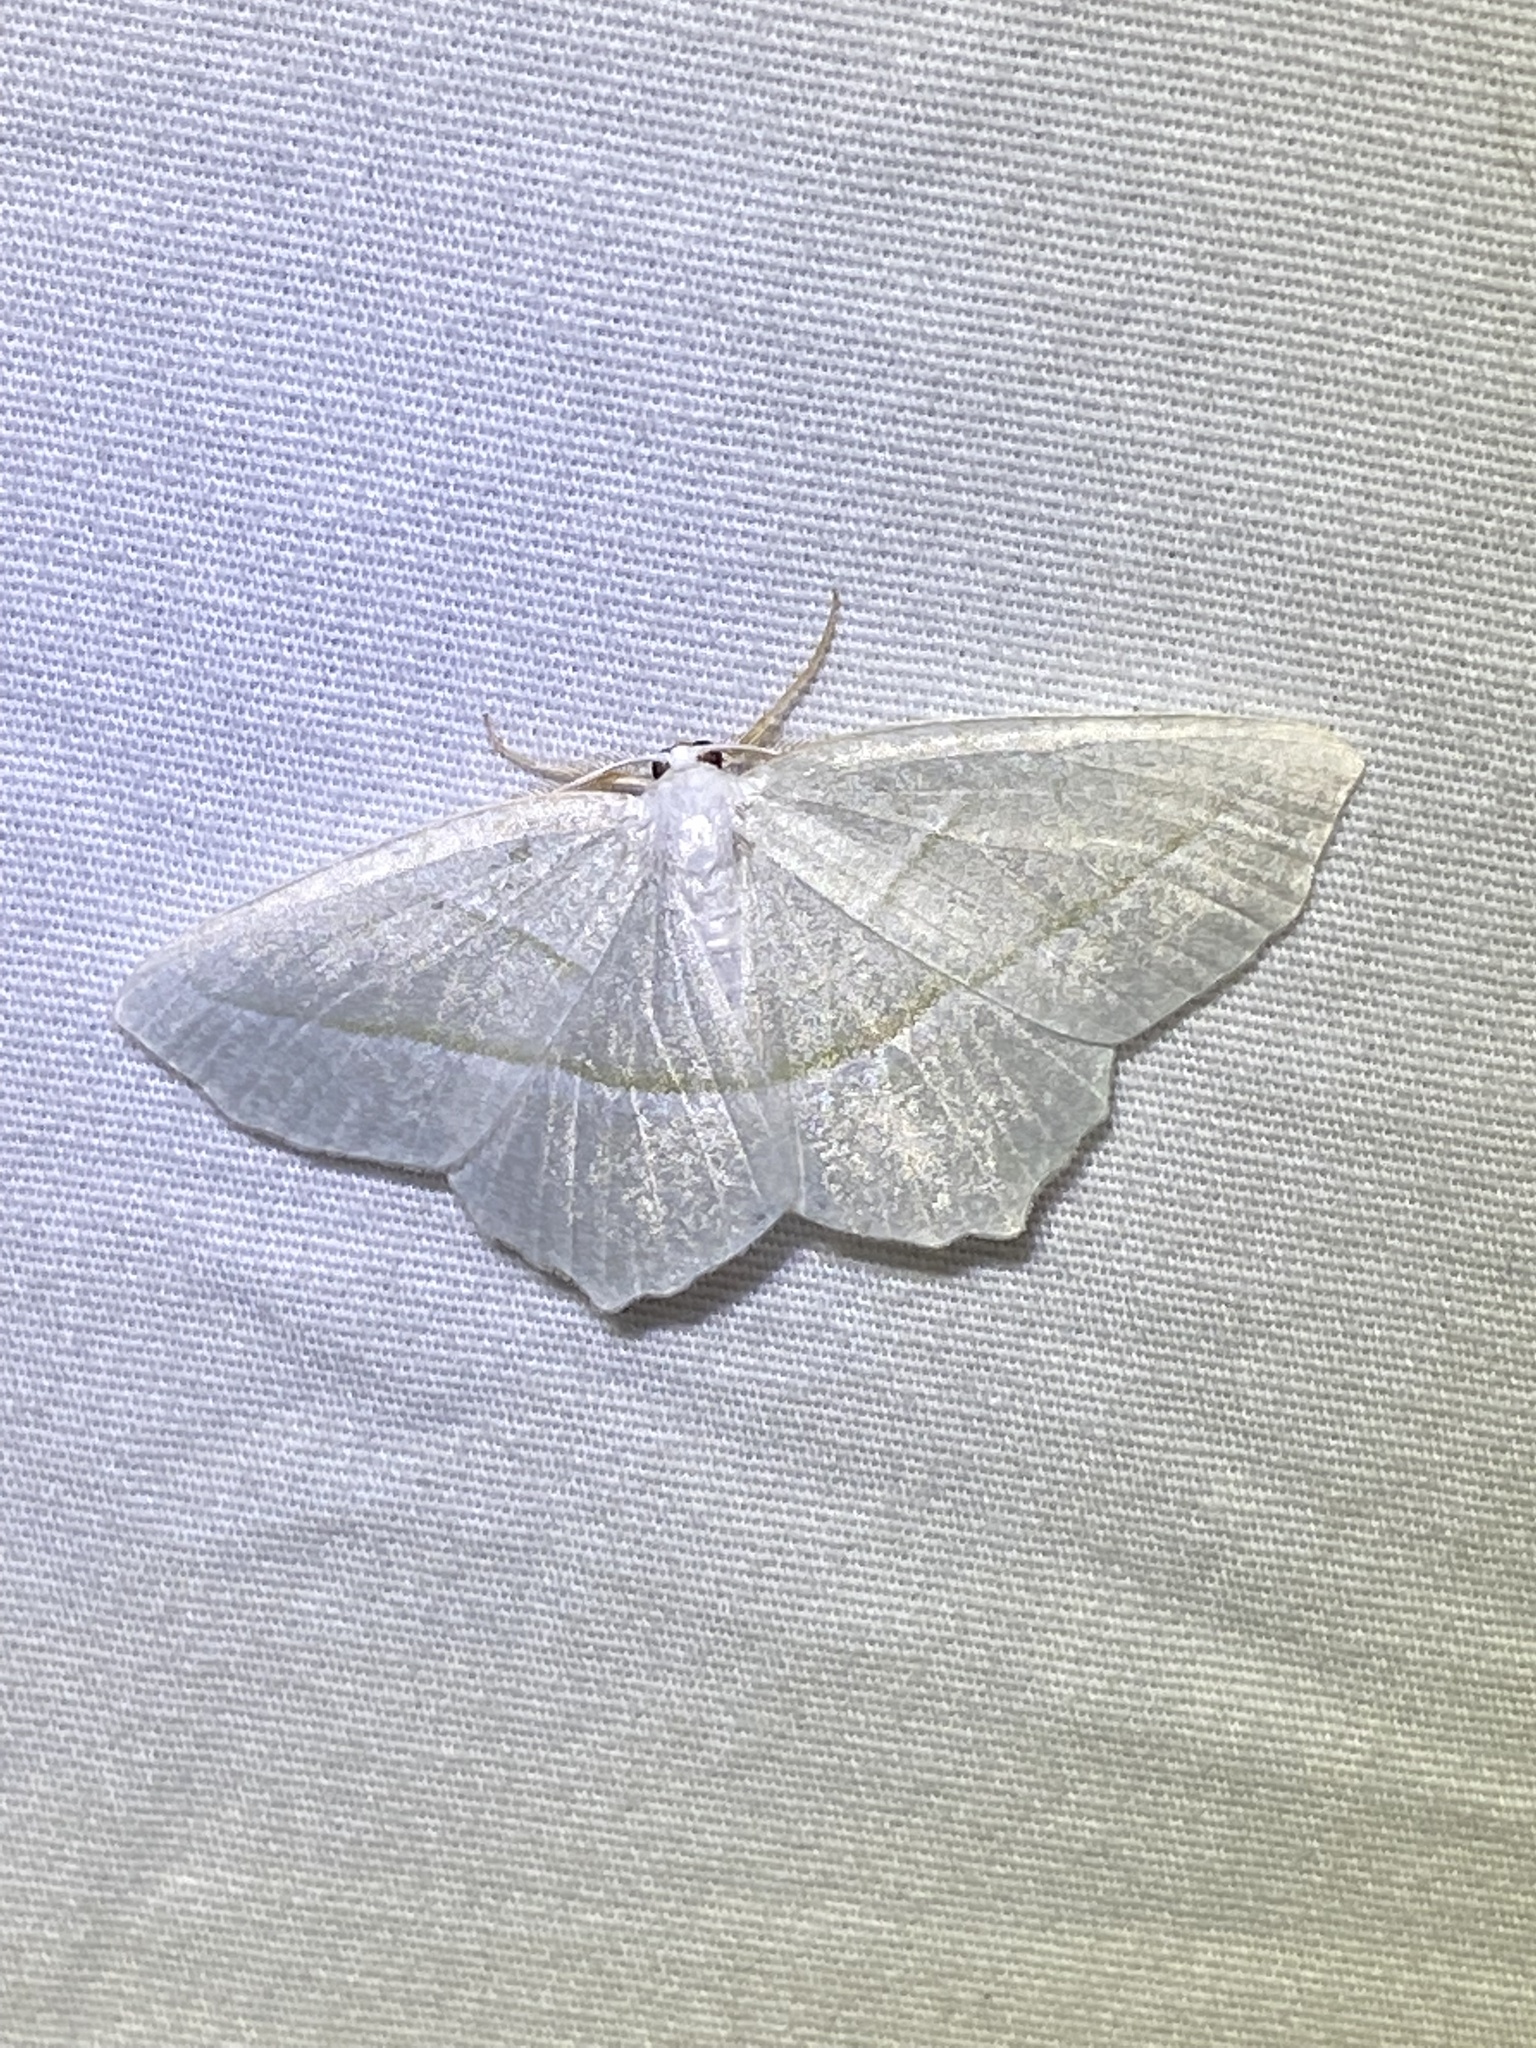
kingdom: Animalia
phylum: Arthropoda
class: Insecta
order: Lepidoptera
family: Geometridae
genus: Campaea
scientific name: Campaea perlata
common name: Fringed looper
